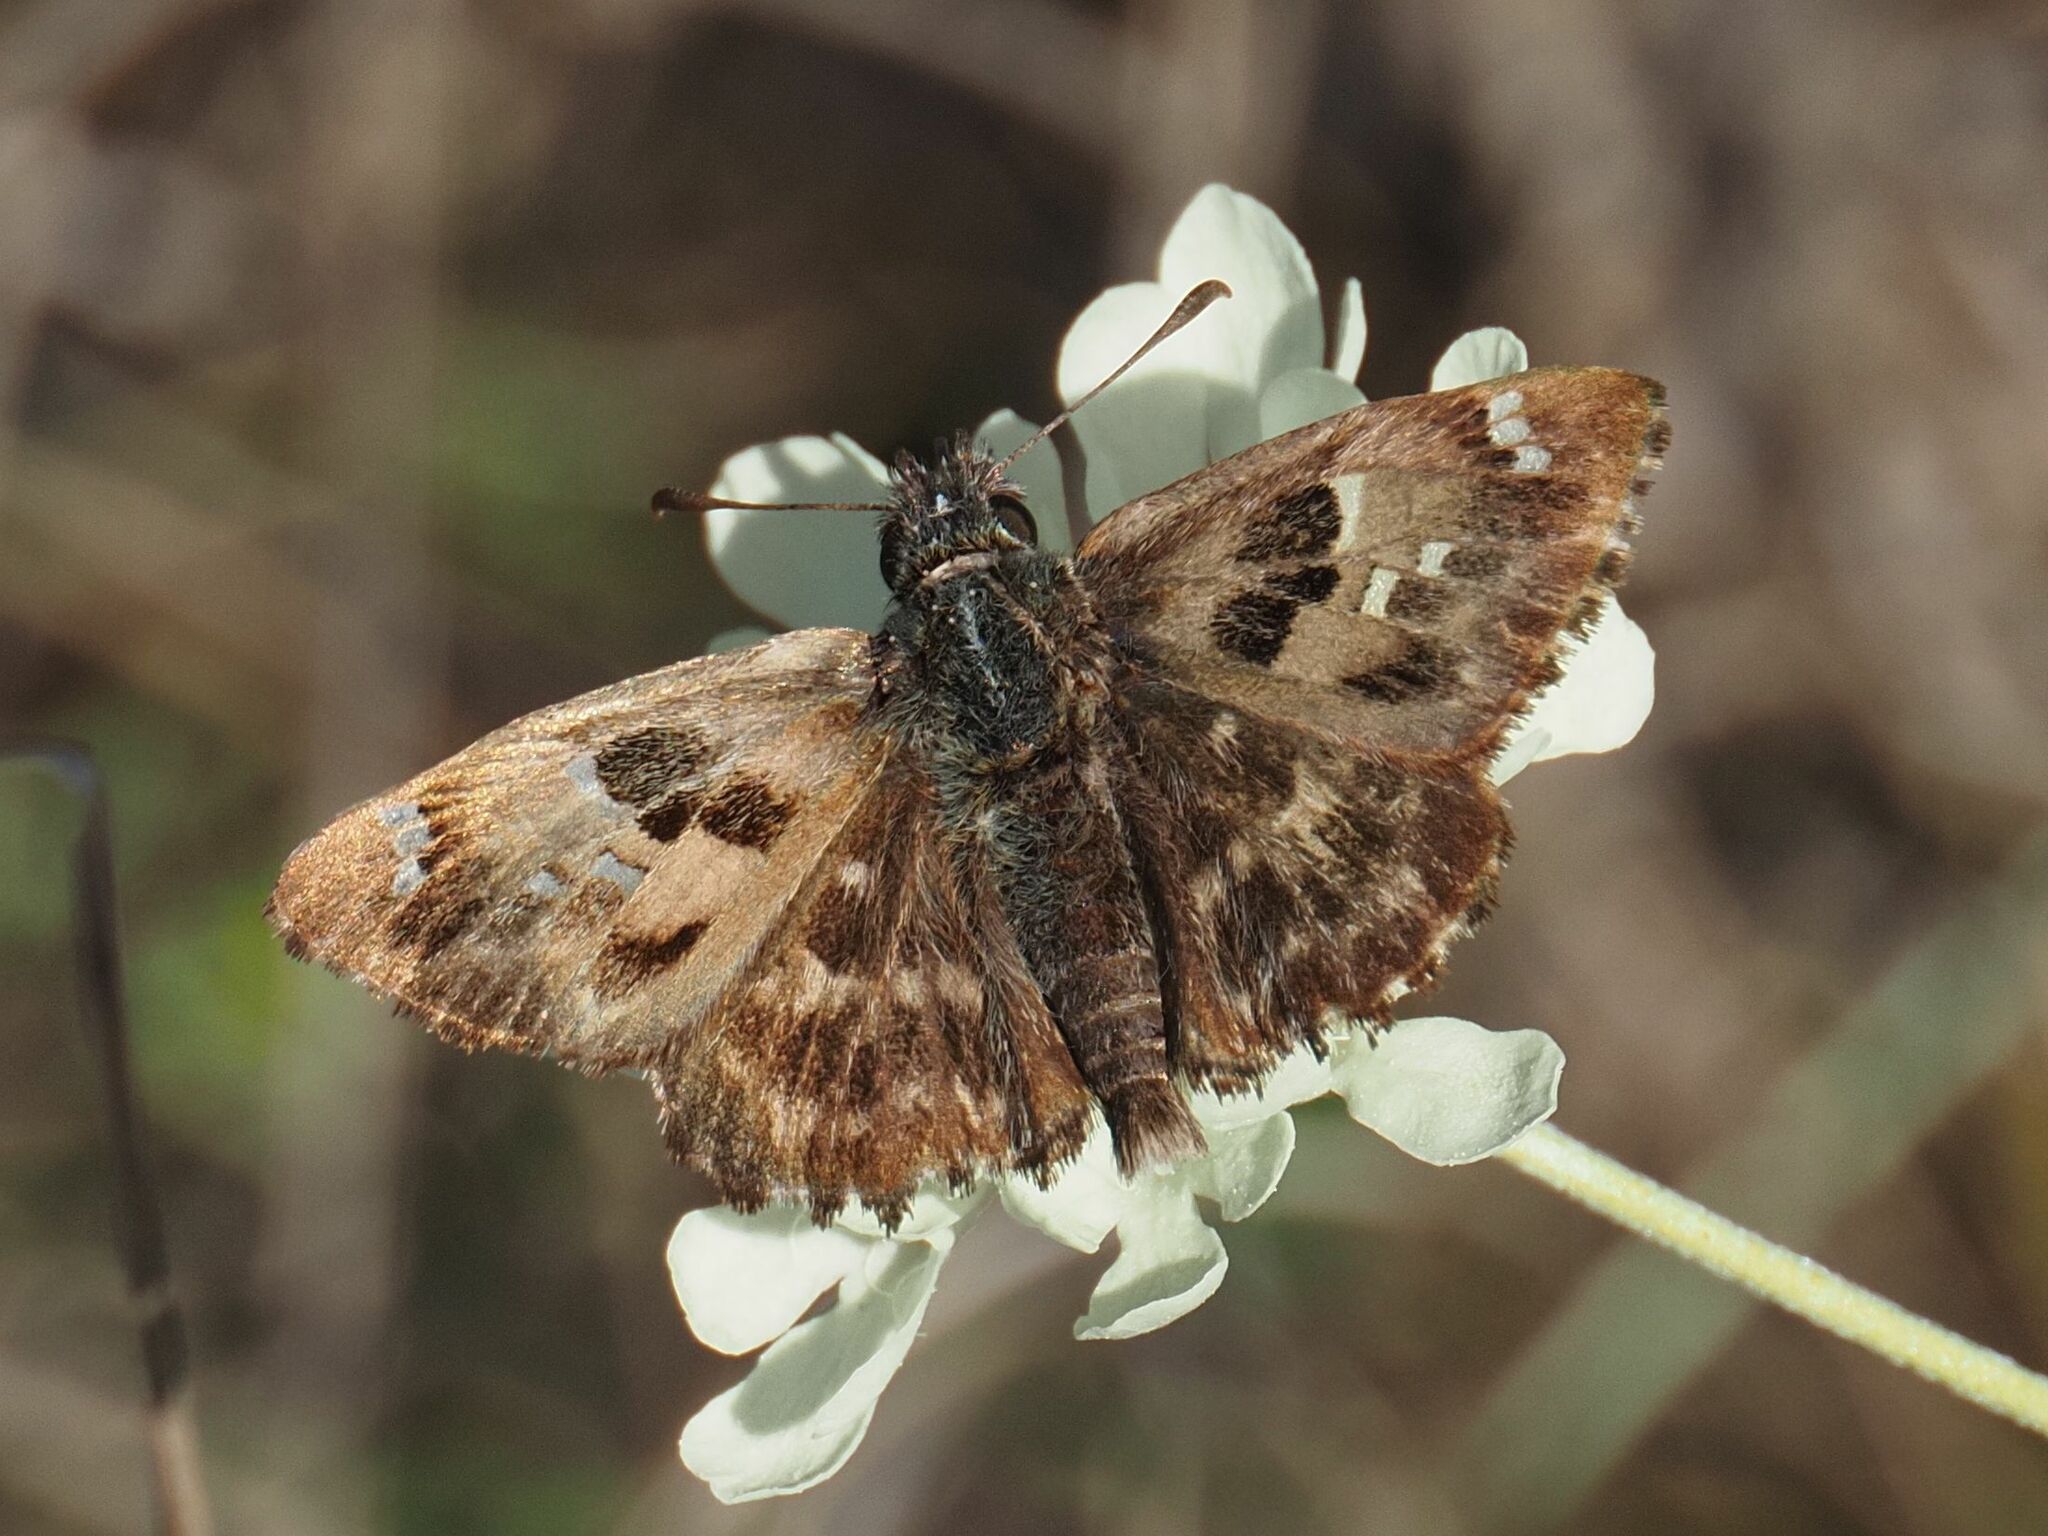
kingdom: Animalia
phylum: Arthropoda
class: Insecta
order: Lepidoptera
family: Hesperiidae
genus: Carcharodus
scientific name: Carcharodus alceae
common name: Mallow skipper
